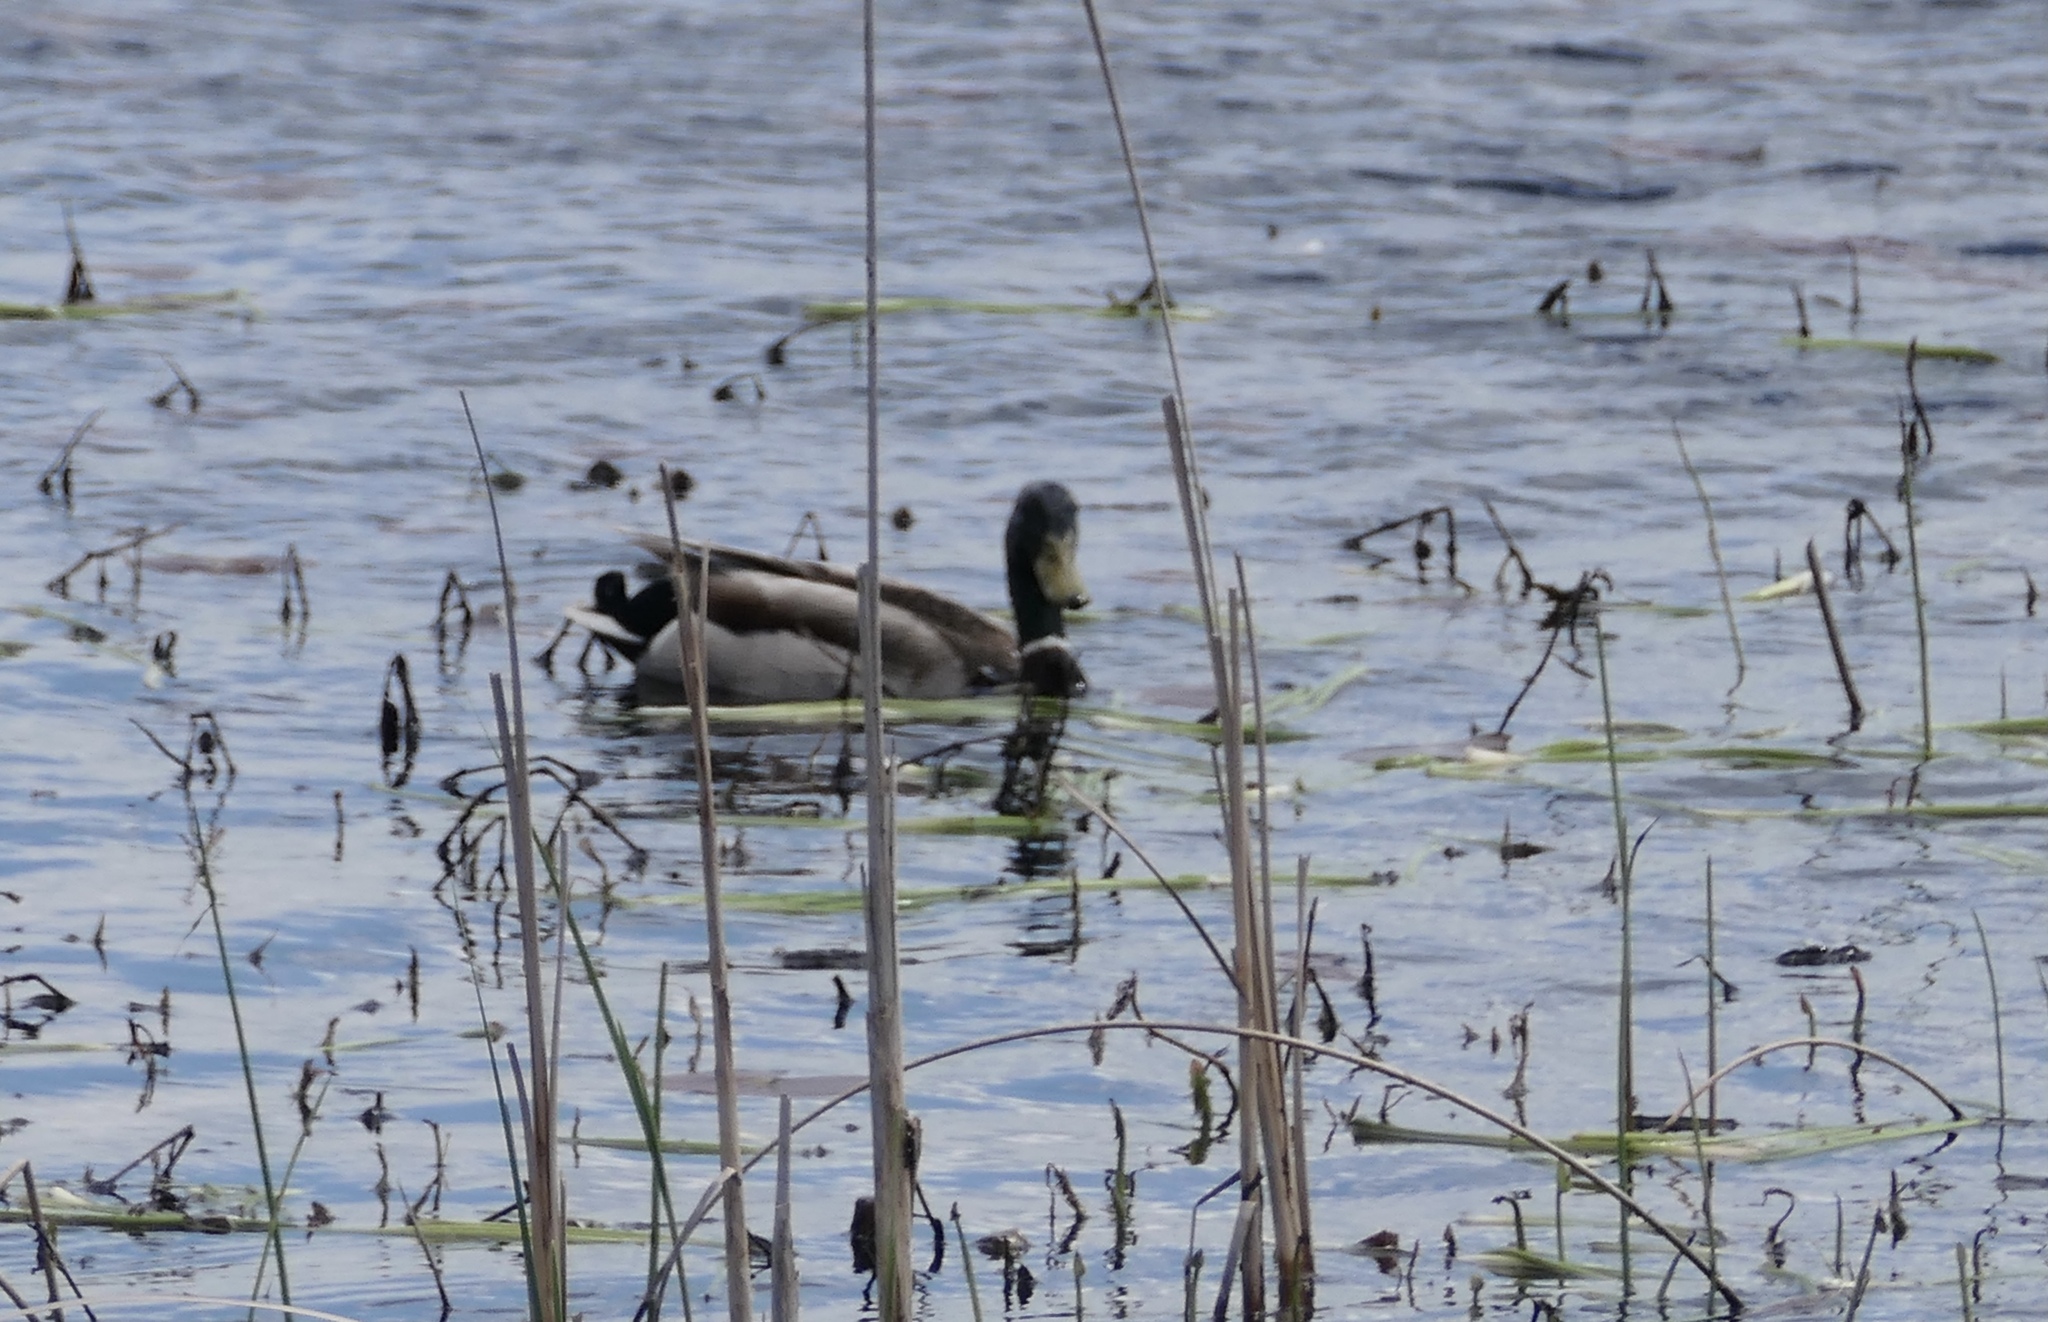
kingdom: Animalia
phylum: Chordata
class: Aves
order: Anseriformes
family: Anatidae
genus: Anas
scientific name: Anas platyrhynchos
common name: Mallard
